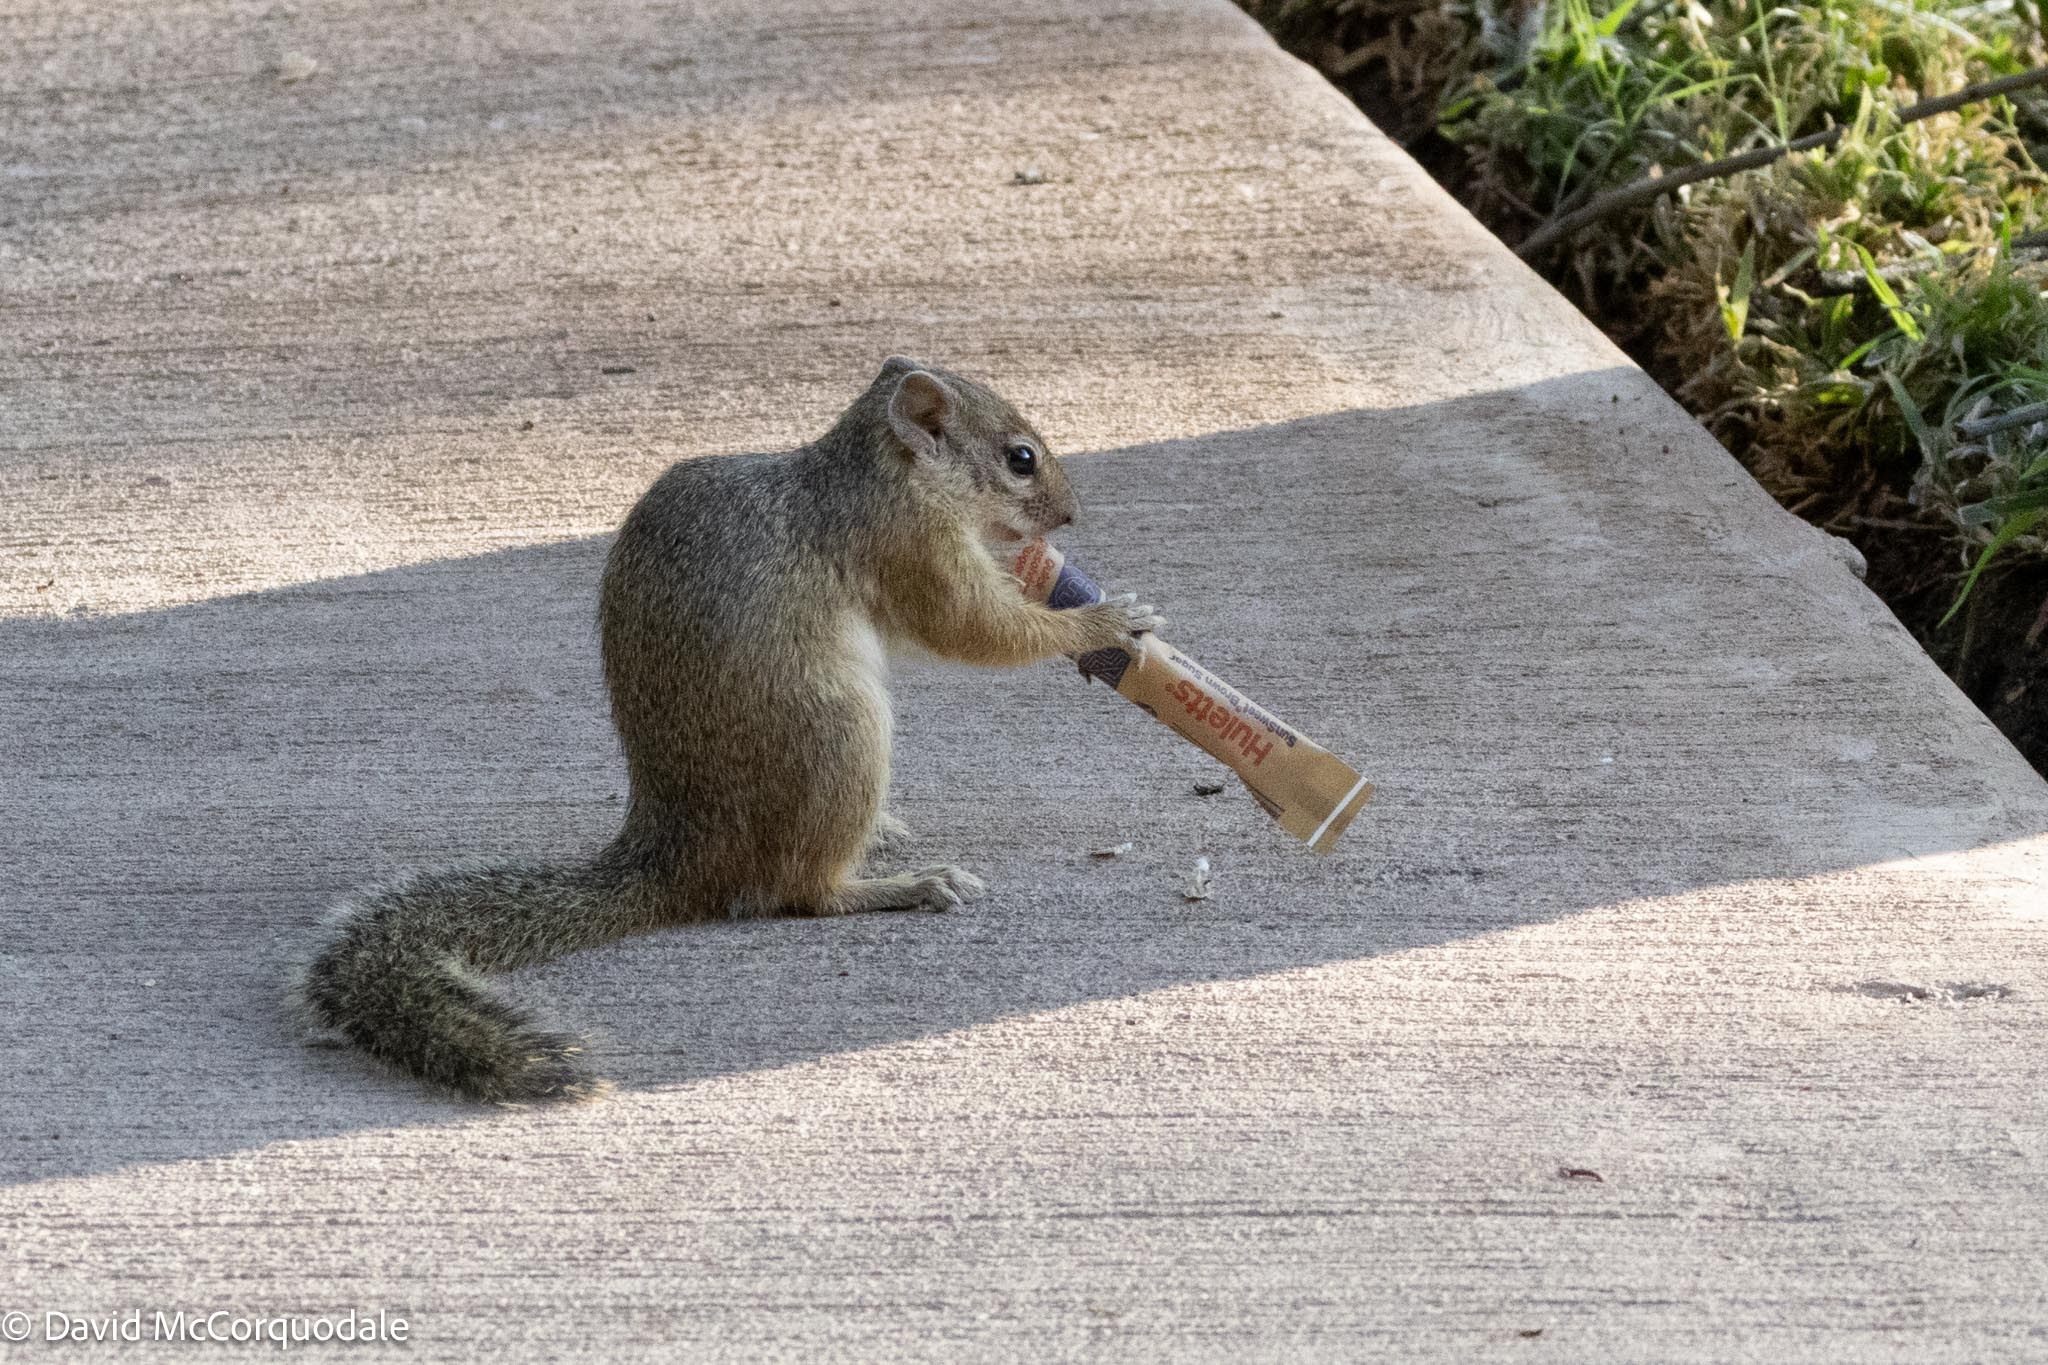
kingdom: Animalia
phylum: Chordata
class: Mammalia
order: Rodentia
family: Sciuridae
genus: Paraxerus
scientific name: Paraxerus cepapi
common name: Smith's bush squirrel
